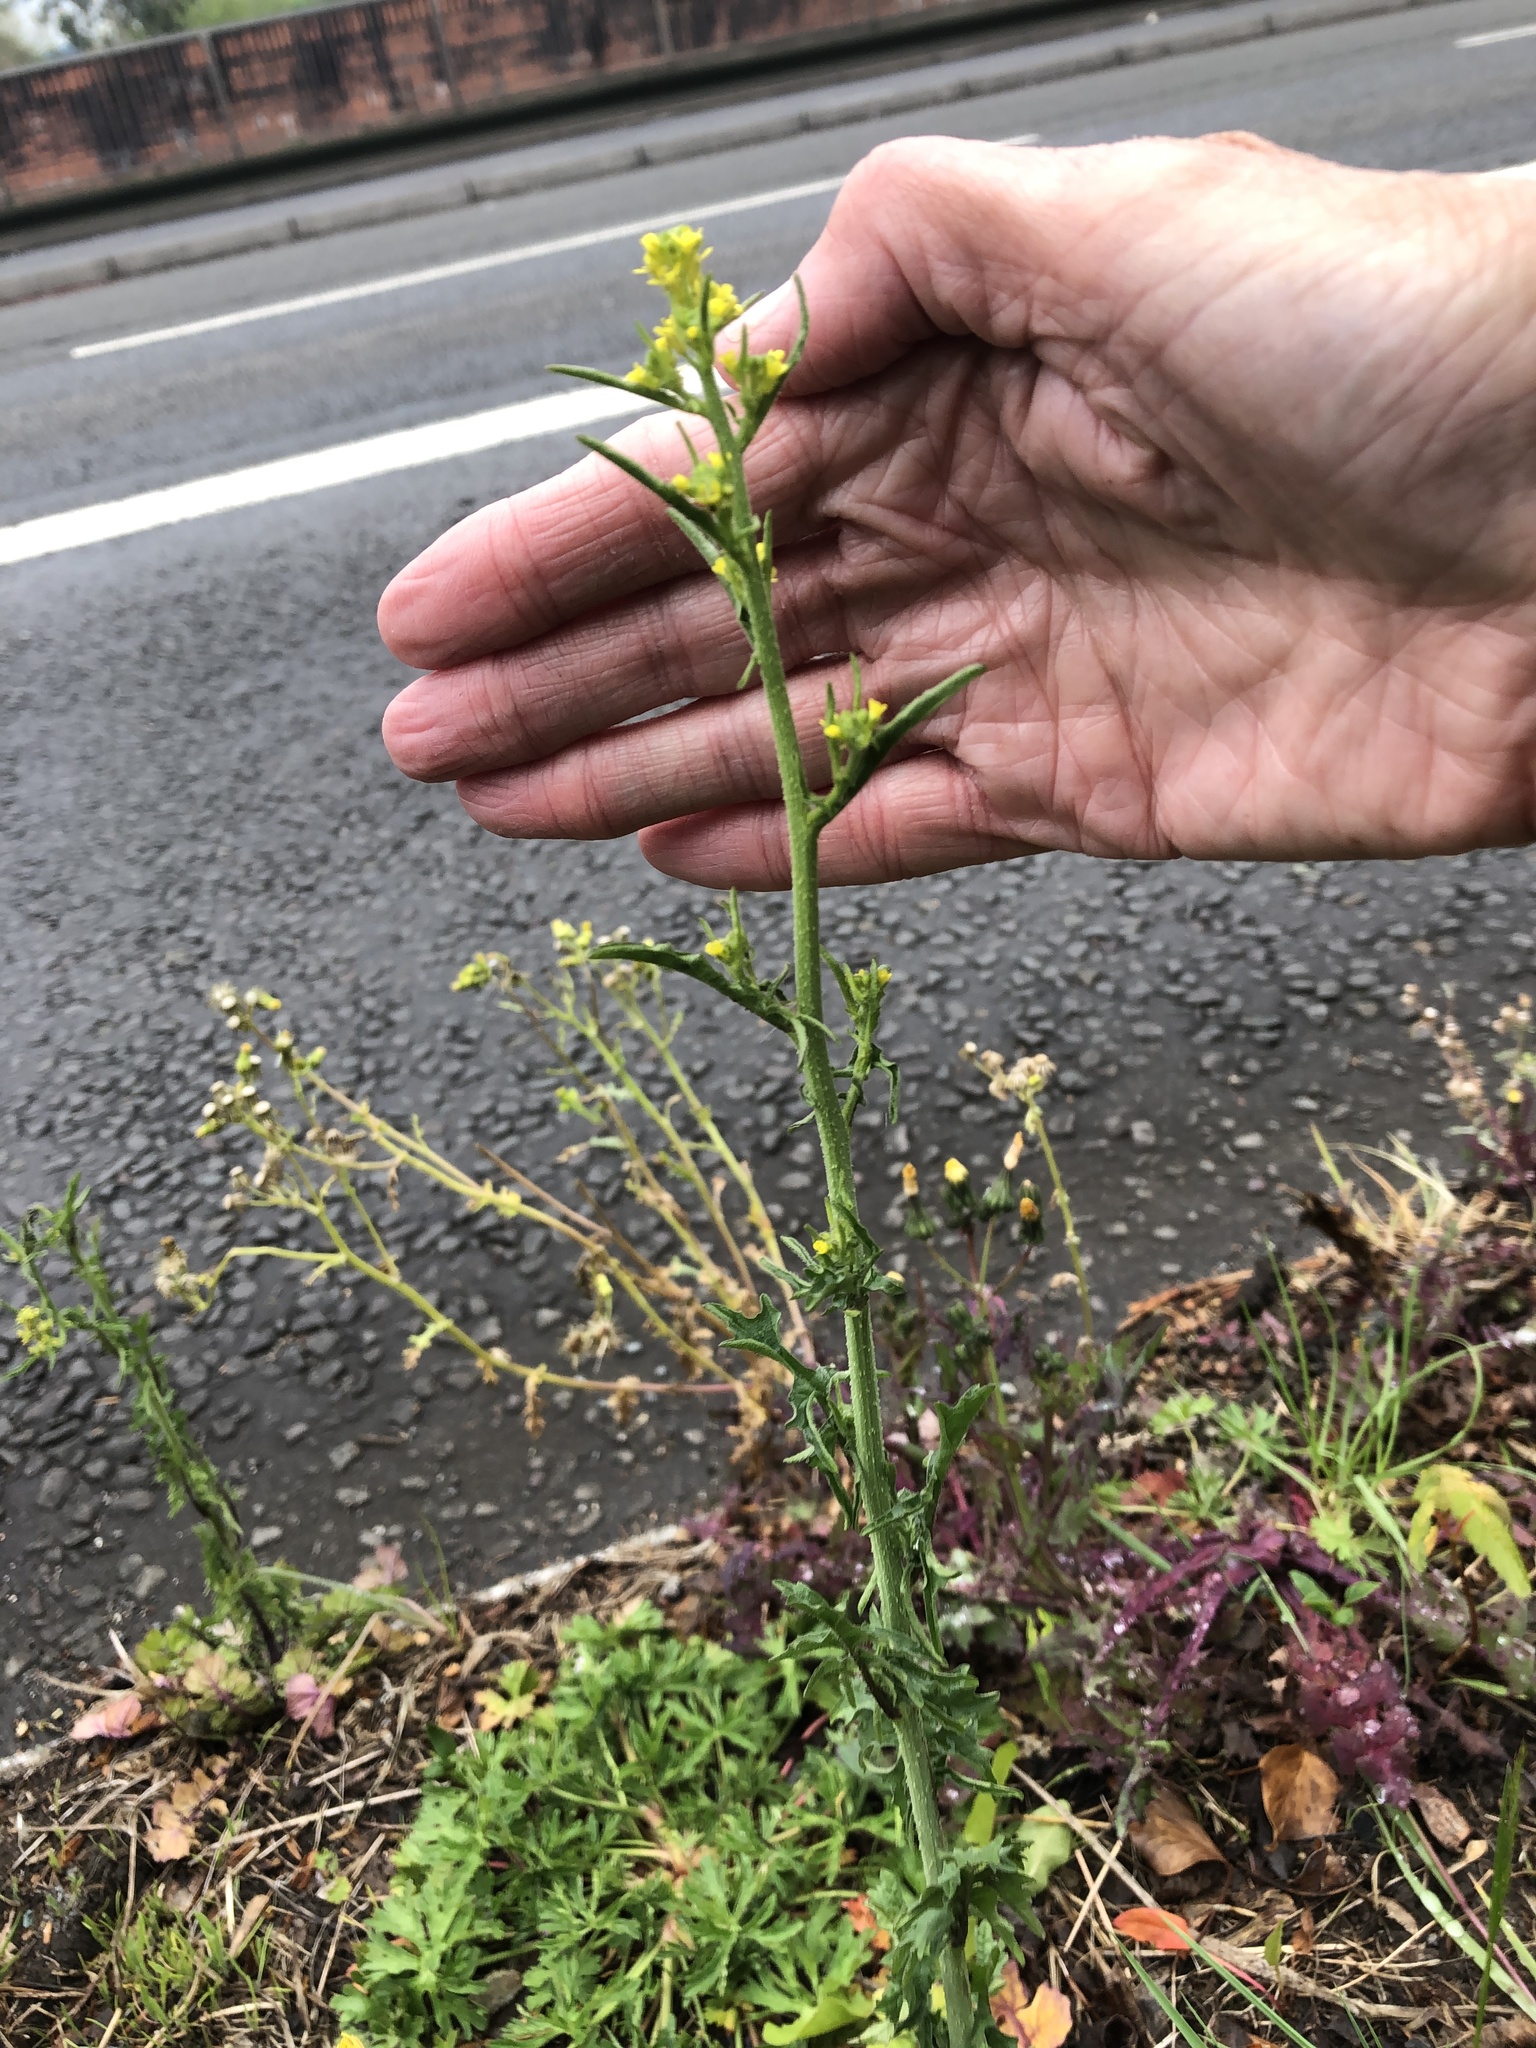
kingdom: Plantae
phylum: Tracheophyta
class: Magnoliopsida
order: Brassicales
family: Brassicaceae
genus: Sisymbrium
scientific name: Sisymbrium officinale
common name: Hedge mustard
